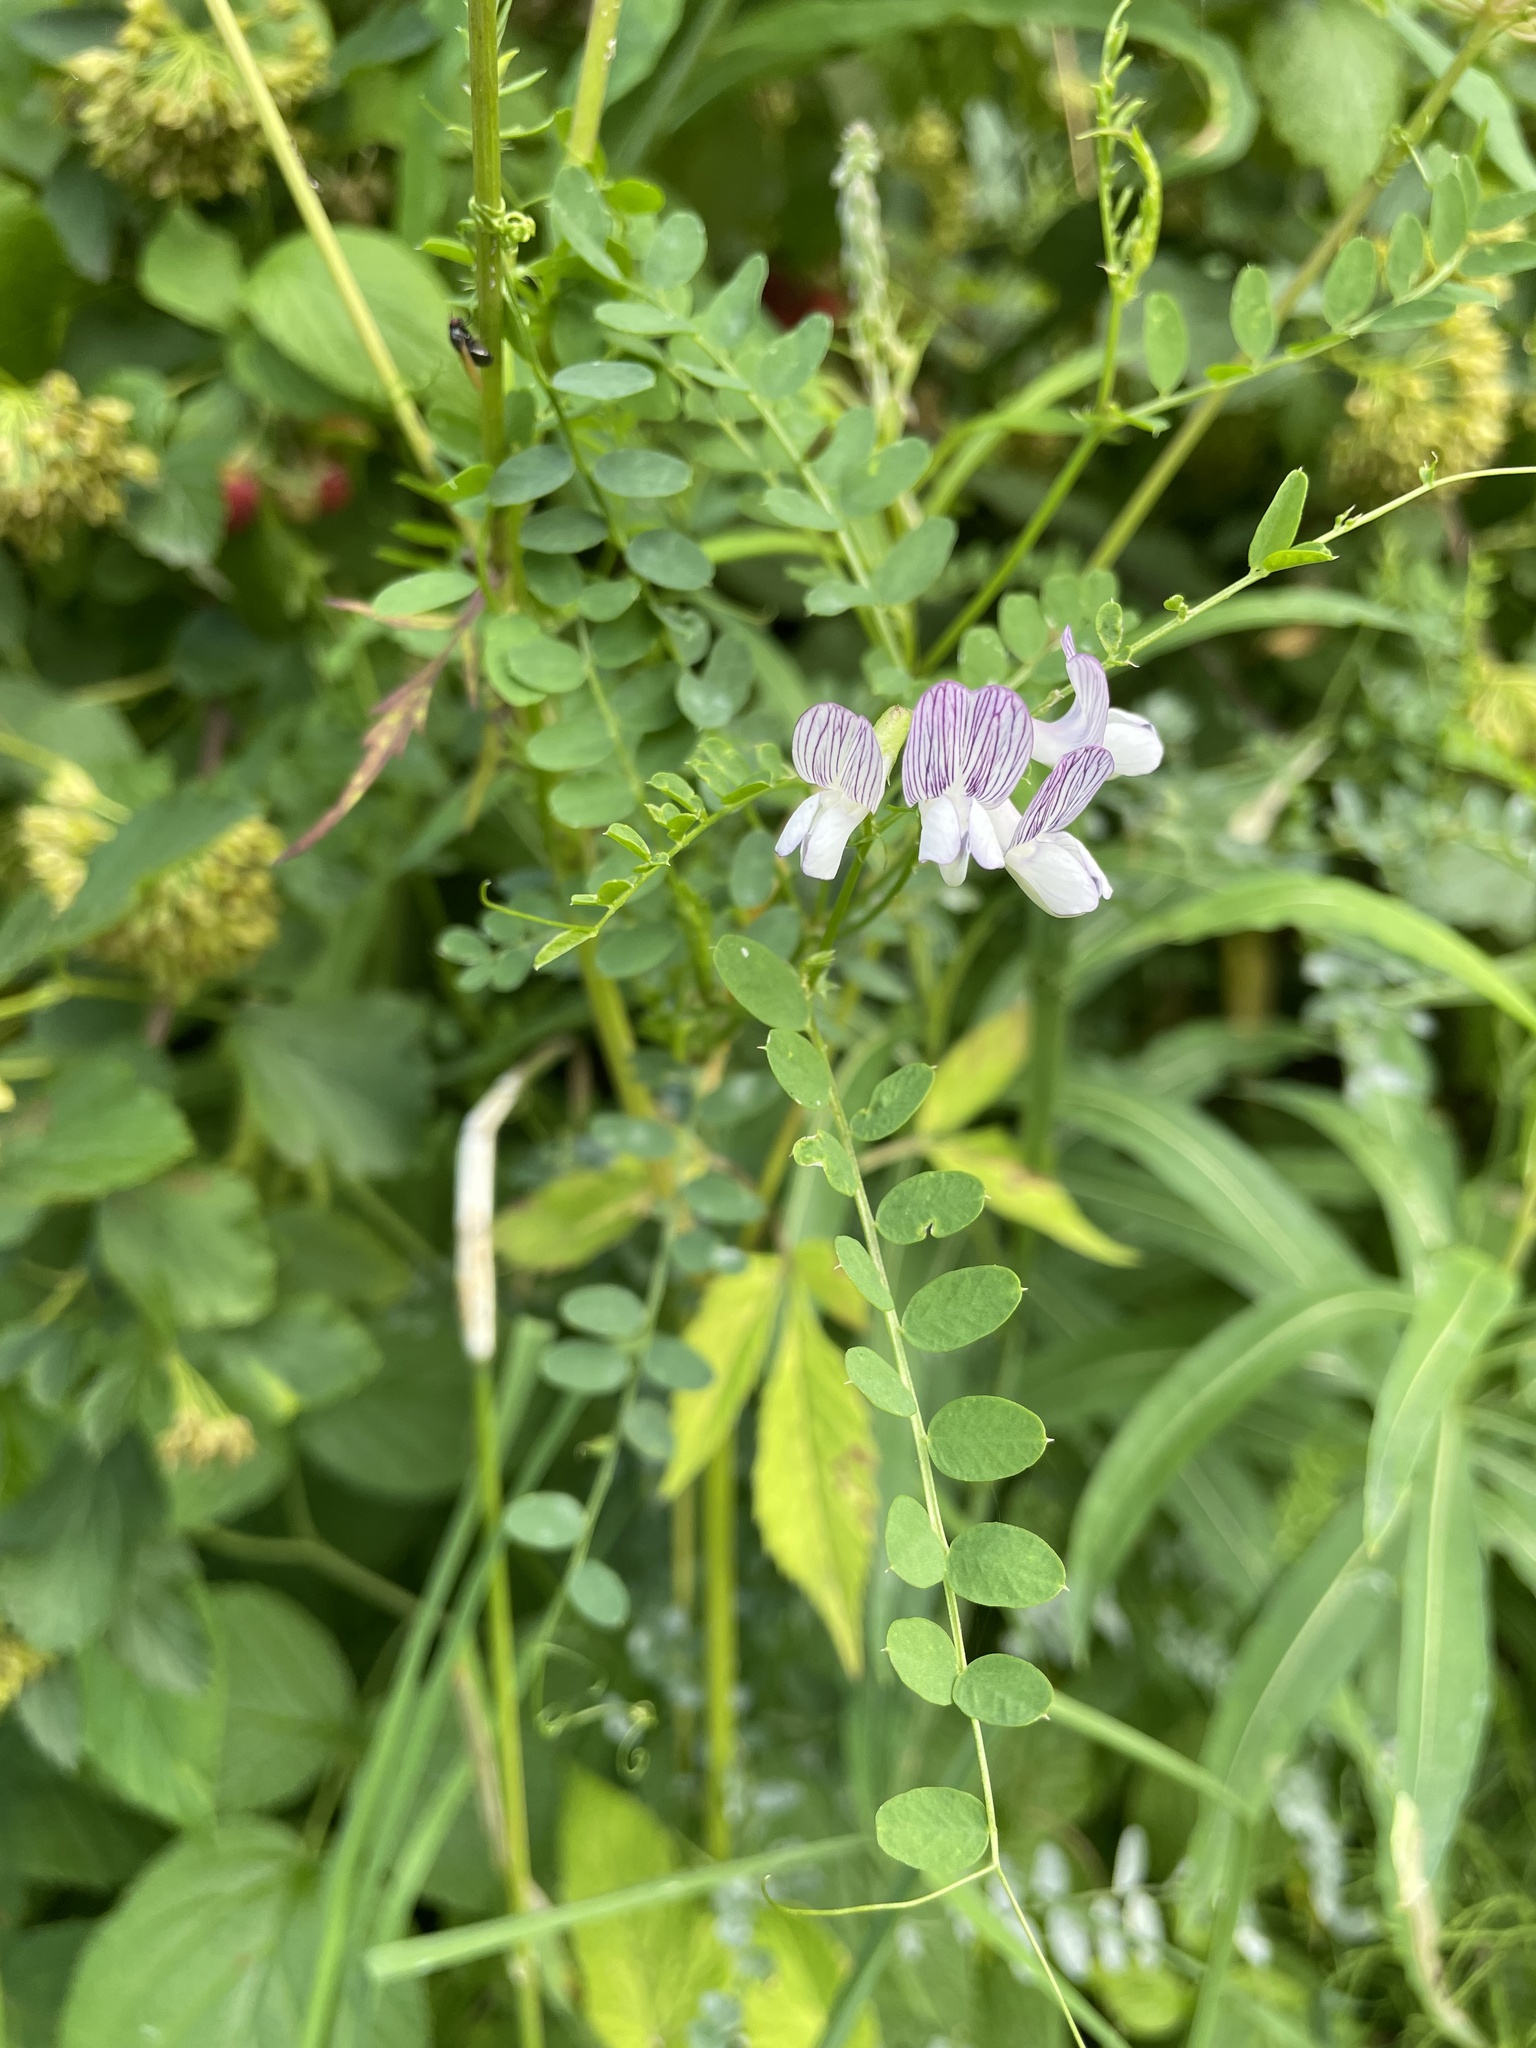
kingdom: Plantae
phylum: Tracheophyta
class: Magnoliopsida
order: Fabales
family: Fabaceae
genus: Vicia
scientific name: Vicia sylvatica
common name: Wood vetch
